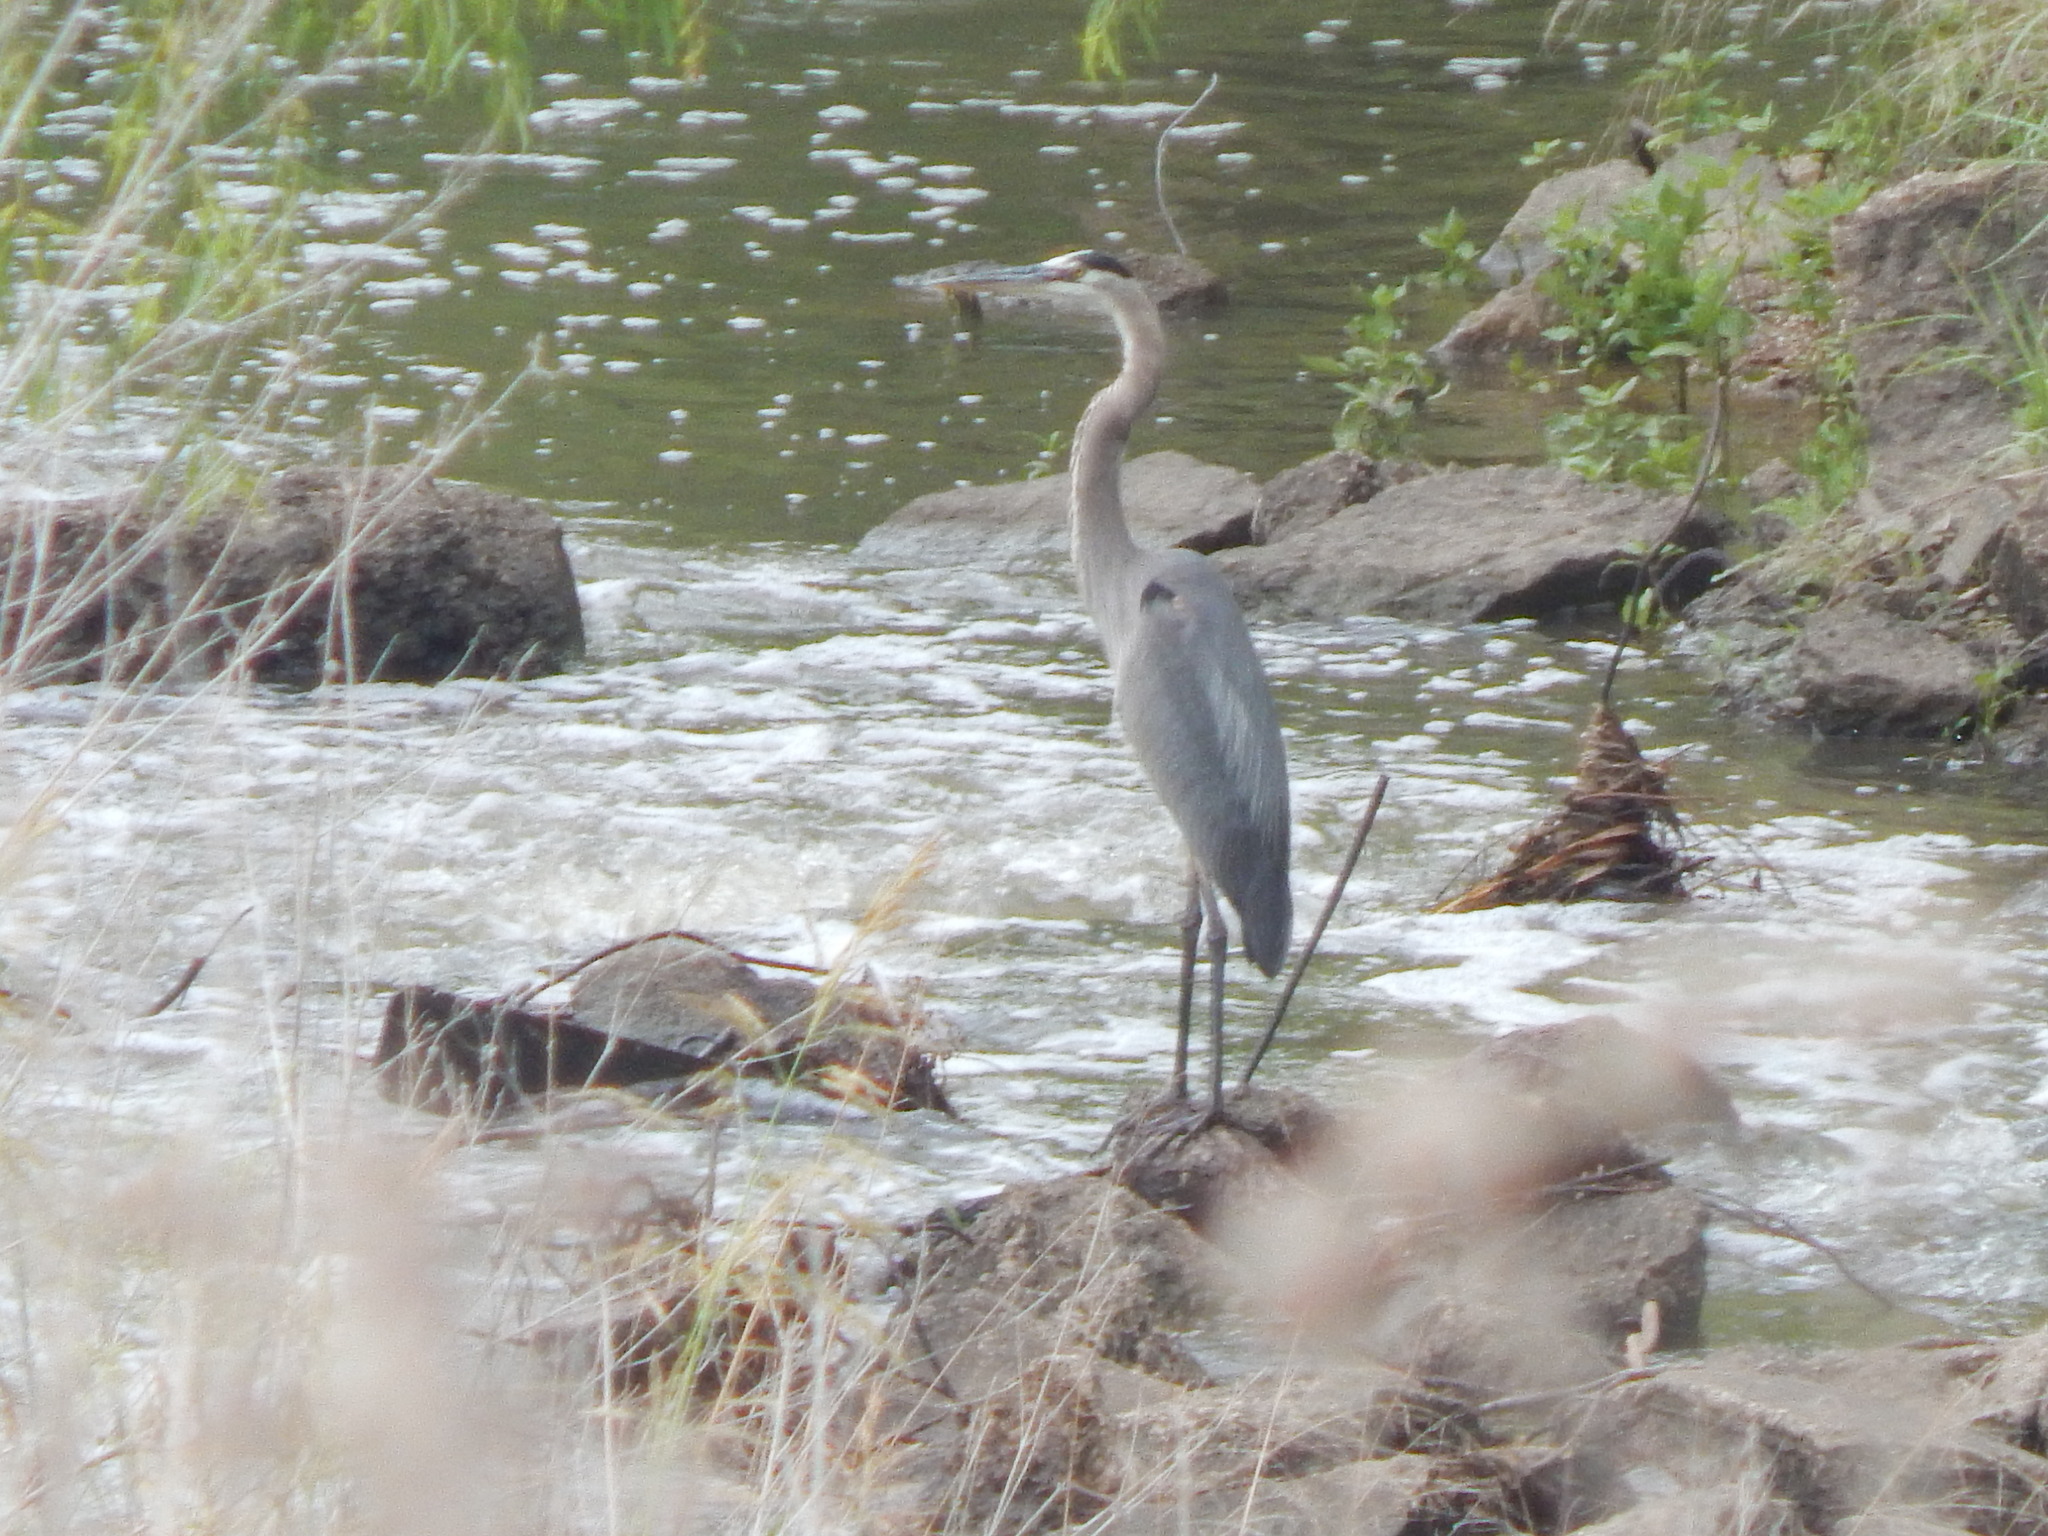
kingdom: Animalia
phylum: Chordata
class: Aves
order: Pelecaniformes
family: Ardeidae
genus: Ardea
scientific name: Ardea herodias
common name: Great blue heron
